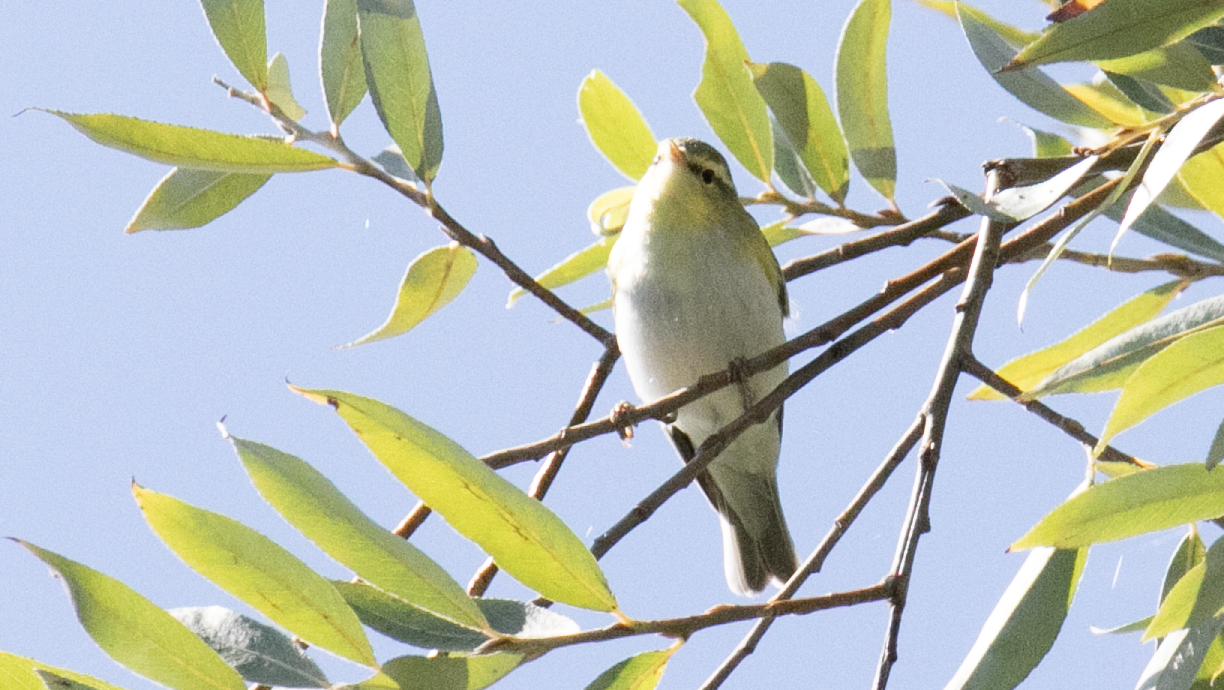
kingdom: Animalia
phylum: Chordata
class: Aves
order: Passeriformes
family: Phylloscopidae
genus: Phylloscopus
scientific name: Phylloscopus sibillatrix
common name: Wood warbler
